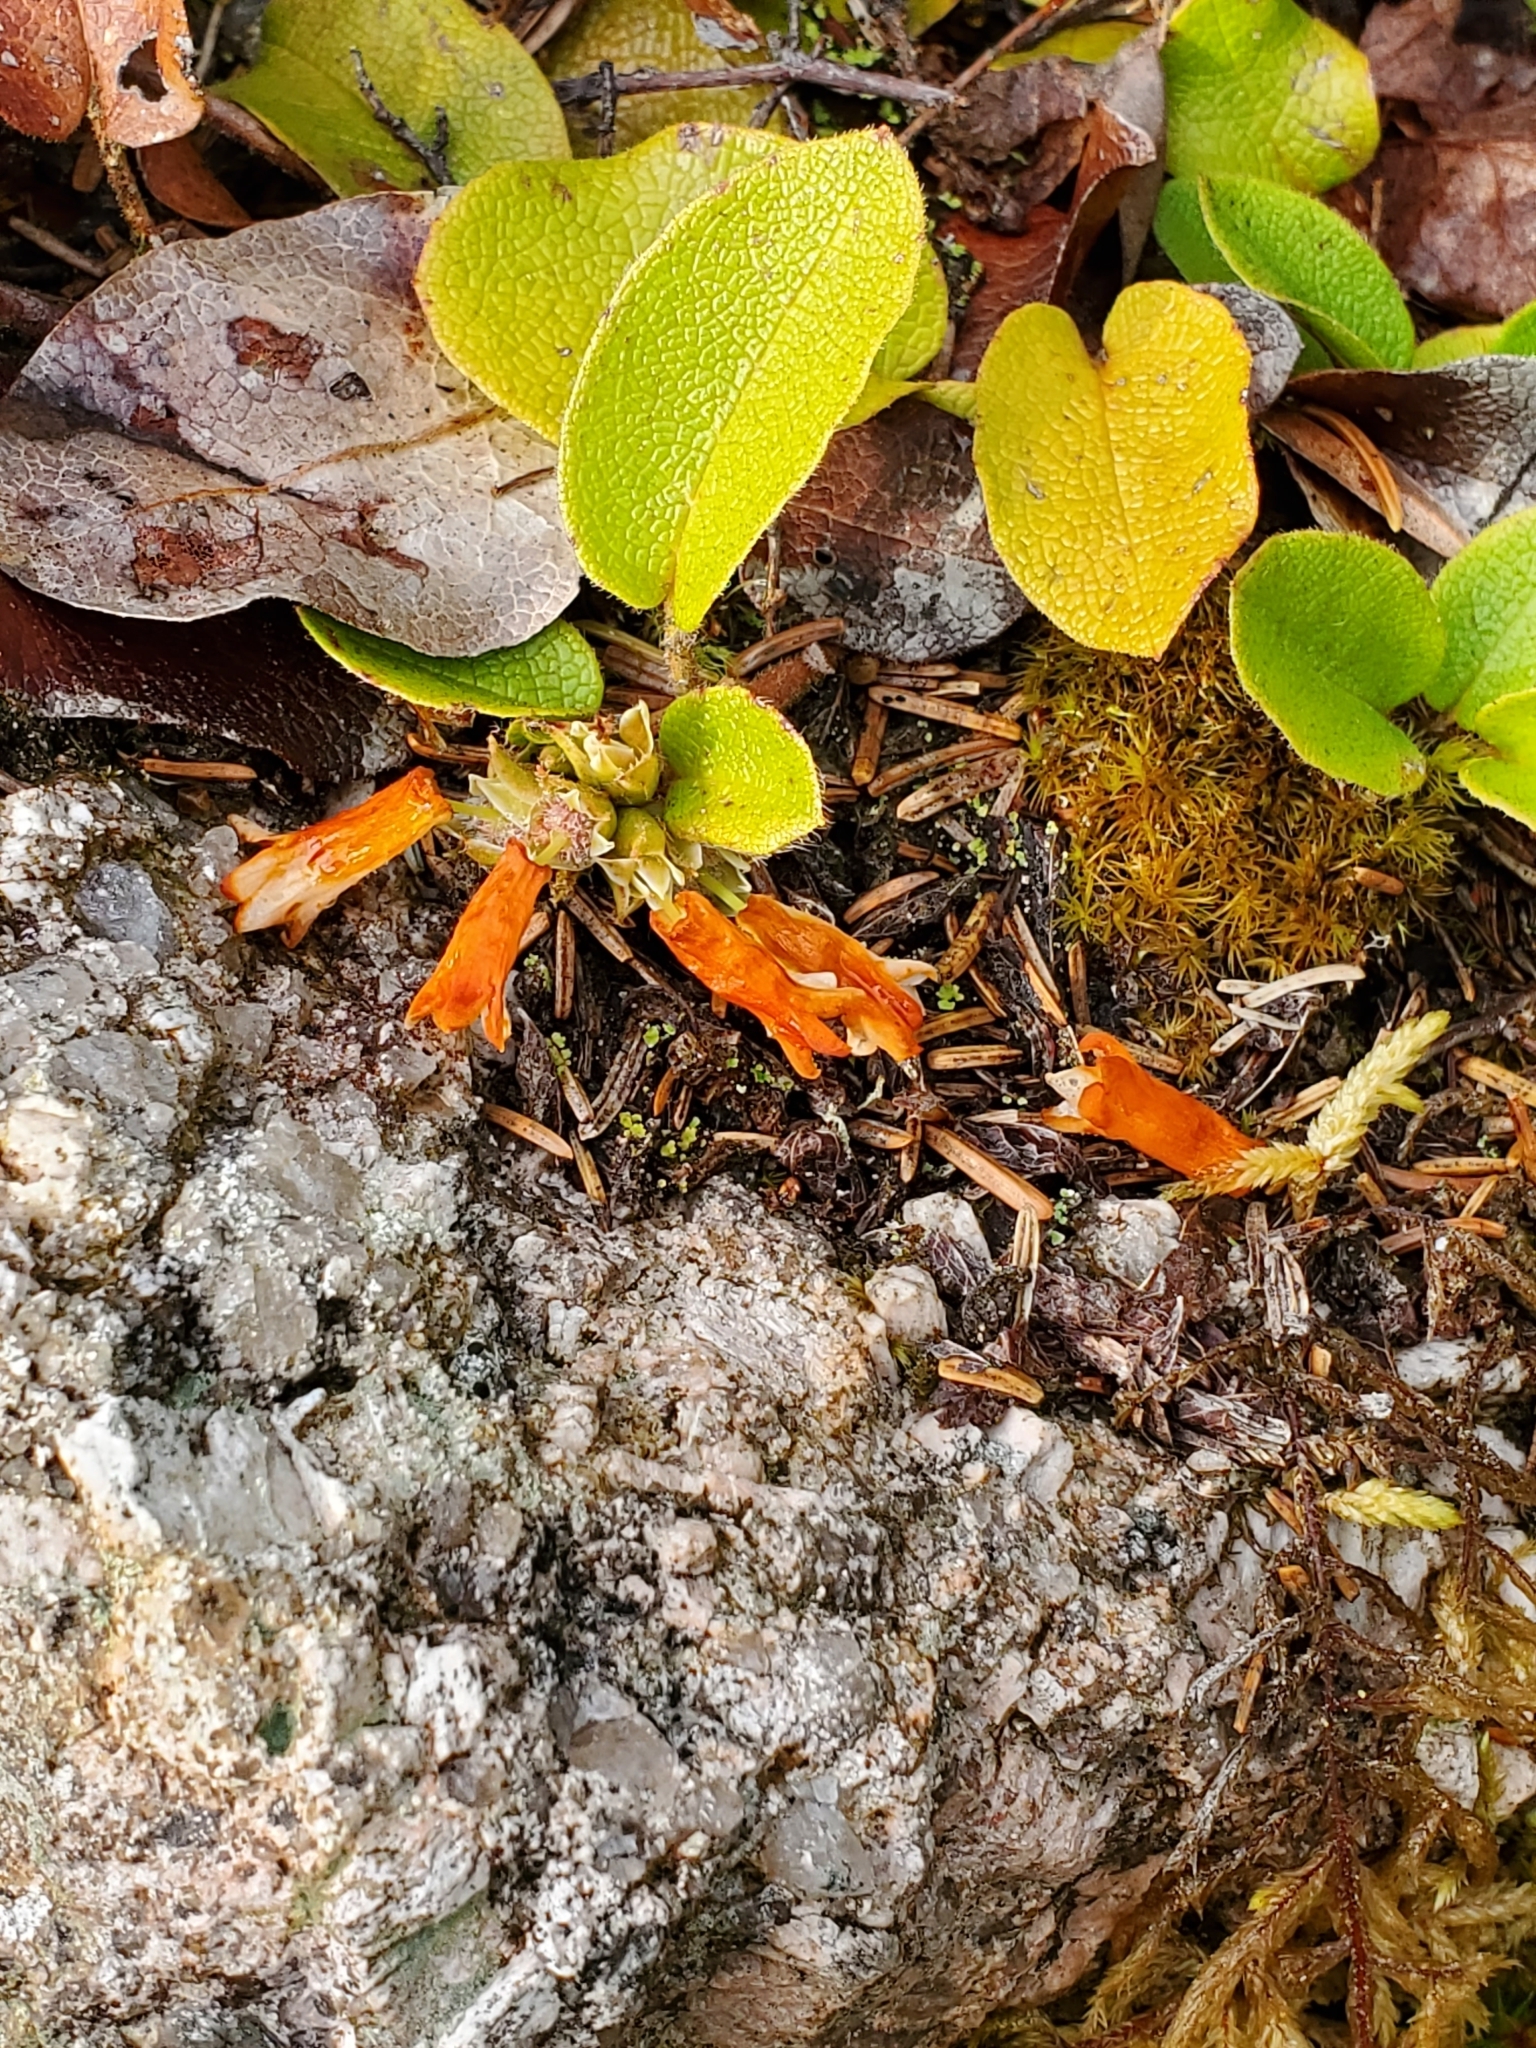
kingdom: Plantae
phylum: Tracheophyta
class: Magnoliopsida
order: Ericales
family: Ericaceae
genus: Epigaea
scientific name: Epigaea repens
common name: Gravelroot
